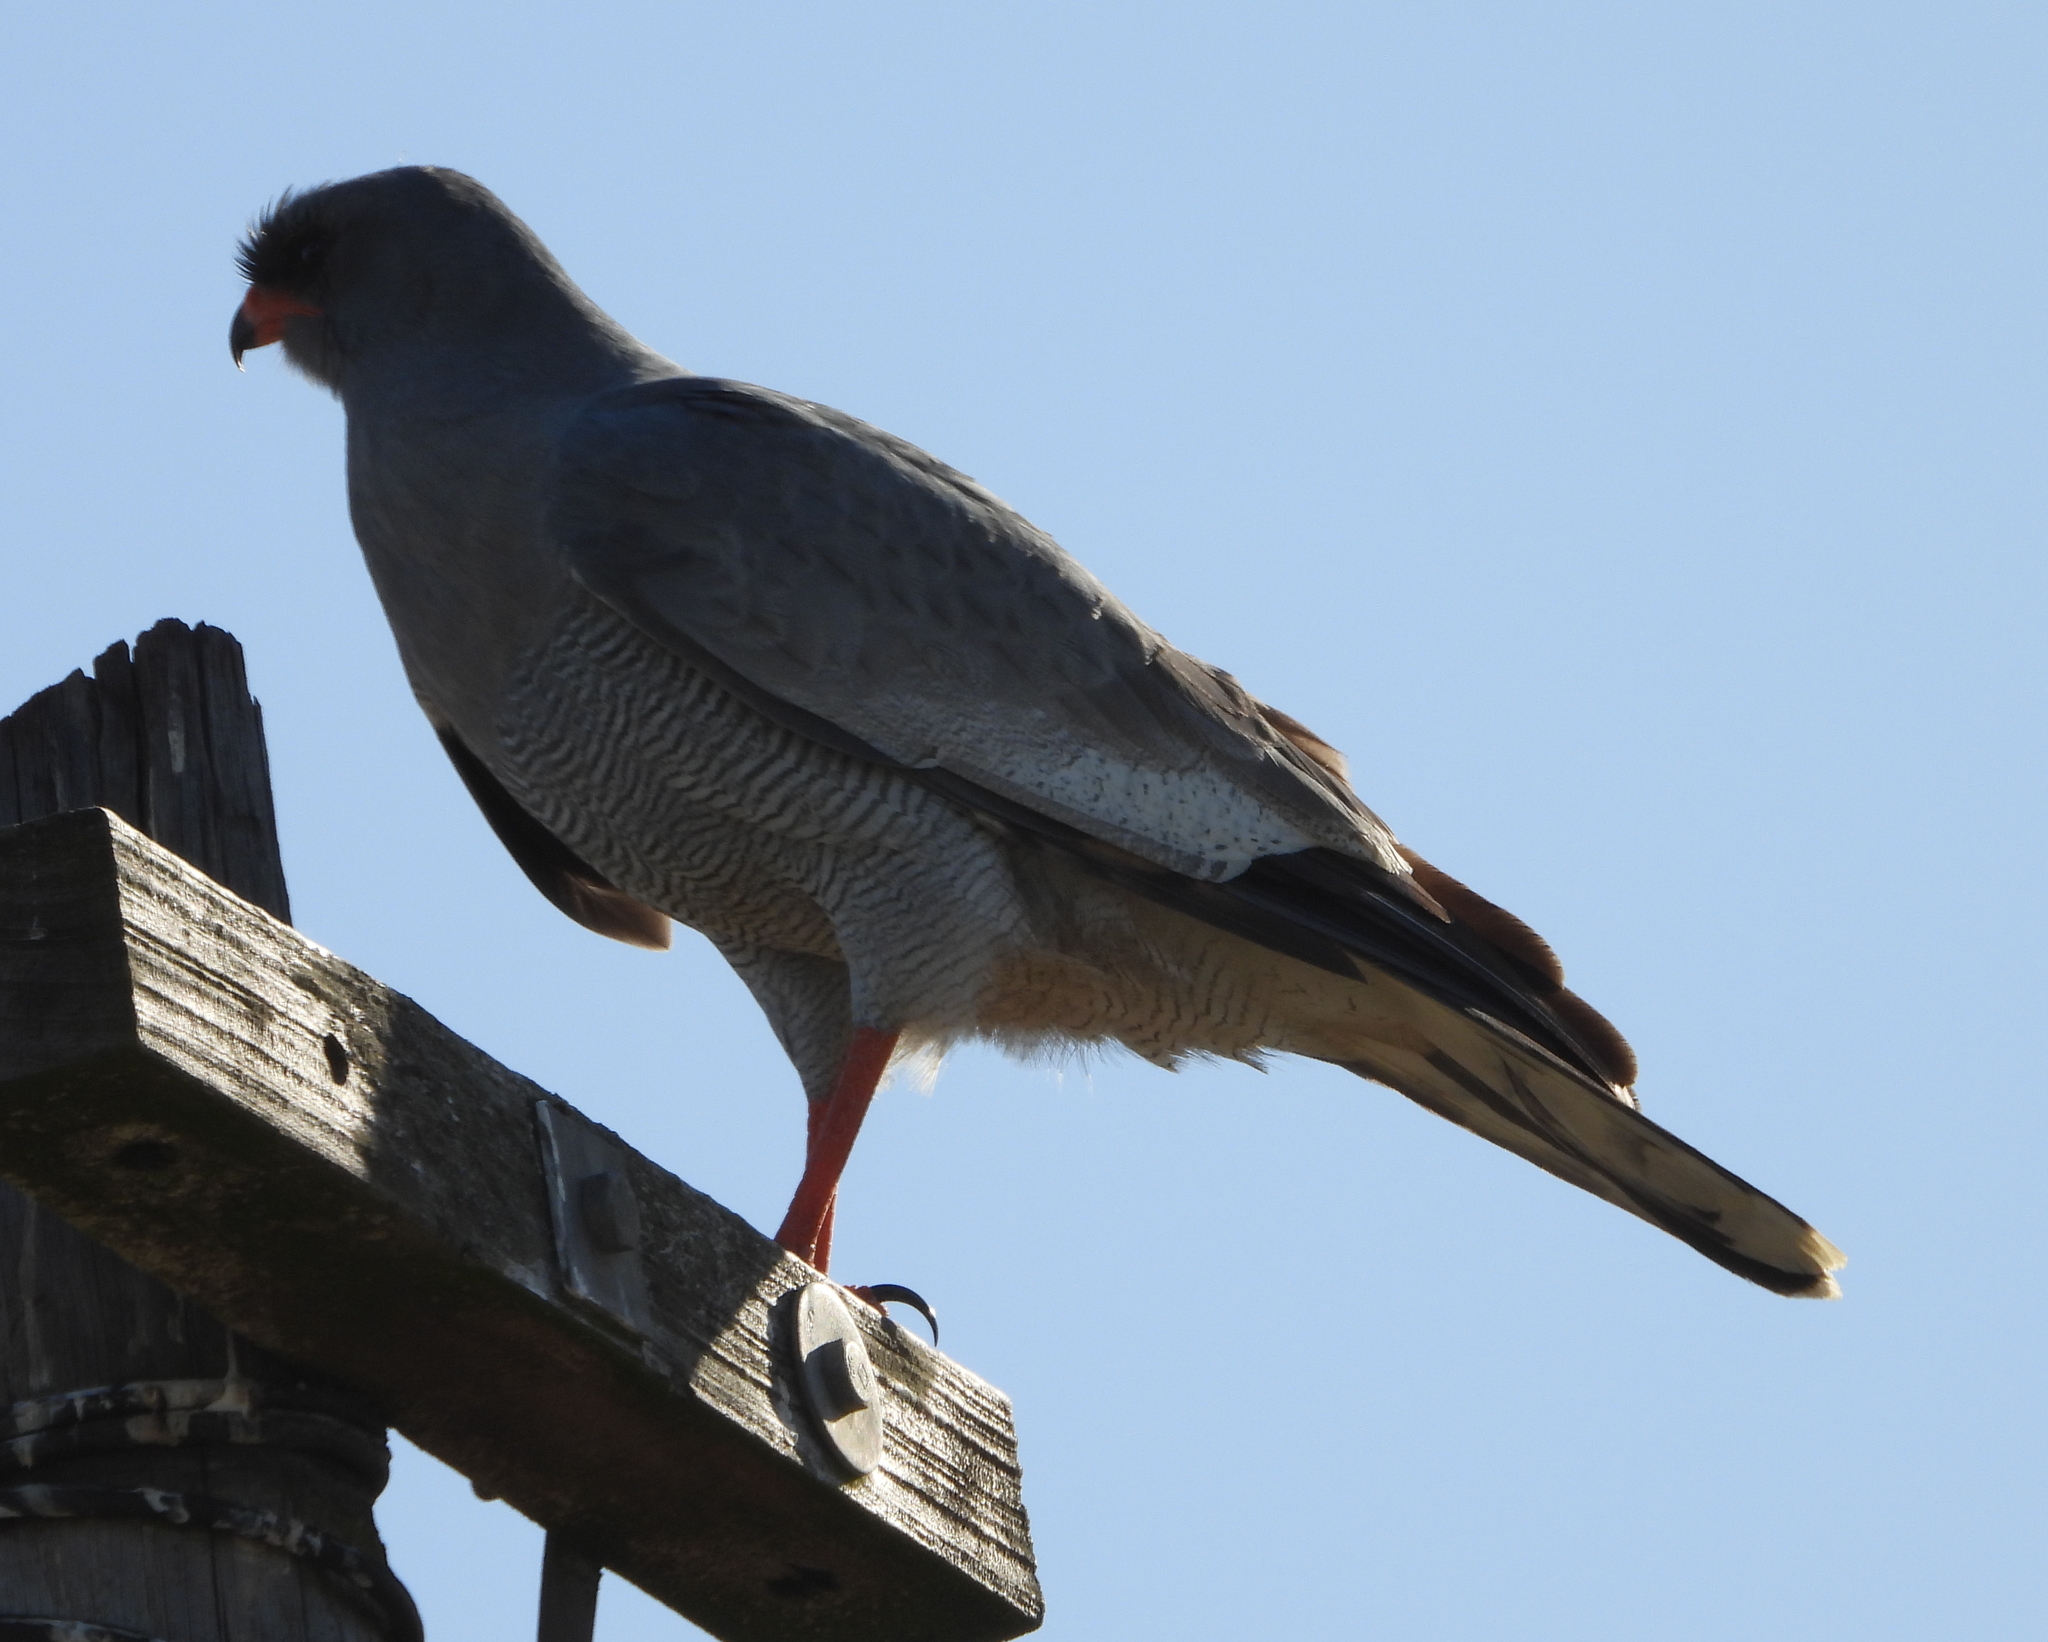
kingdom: Animalia
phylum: Chordata
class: Aves
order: Accipitriformes
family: Accipitridae
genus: Melierax
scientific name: Melierax canorus
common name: Pale chanting-goshawk
